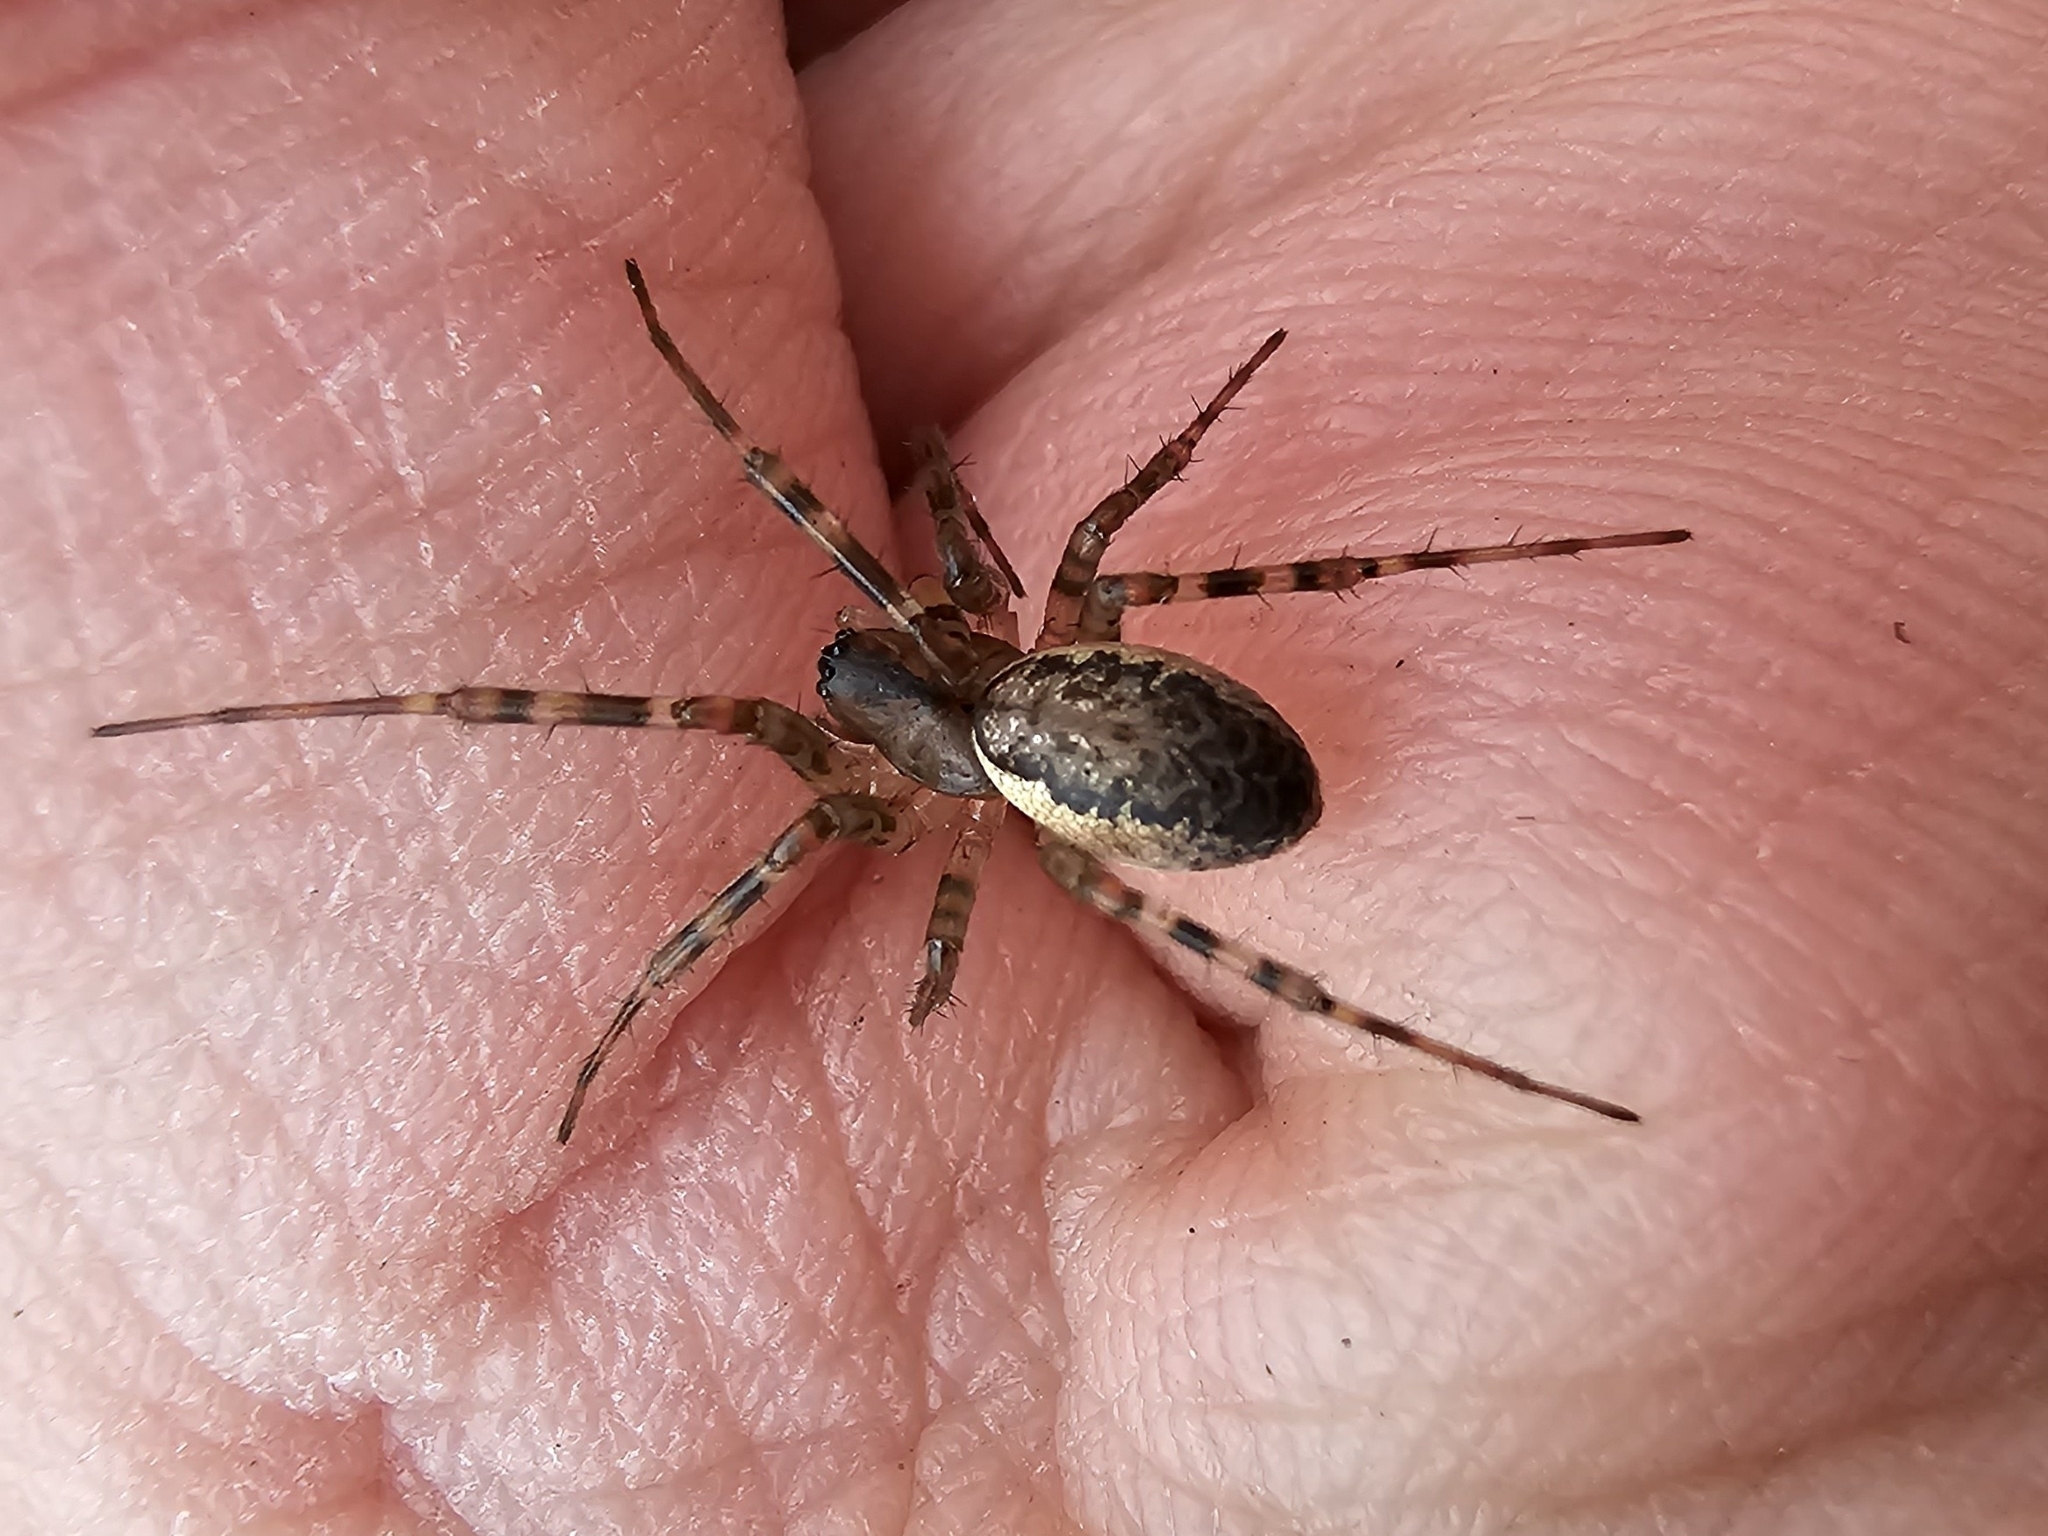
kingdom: Animalia
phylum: Arthropoda
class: Arachnida
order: Araneae
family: Linyphiidae
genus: Neriene
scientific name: Neriene montana
